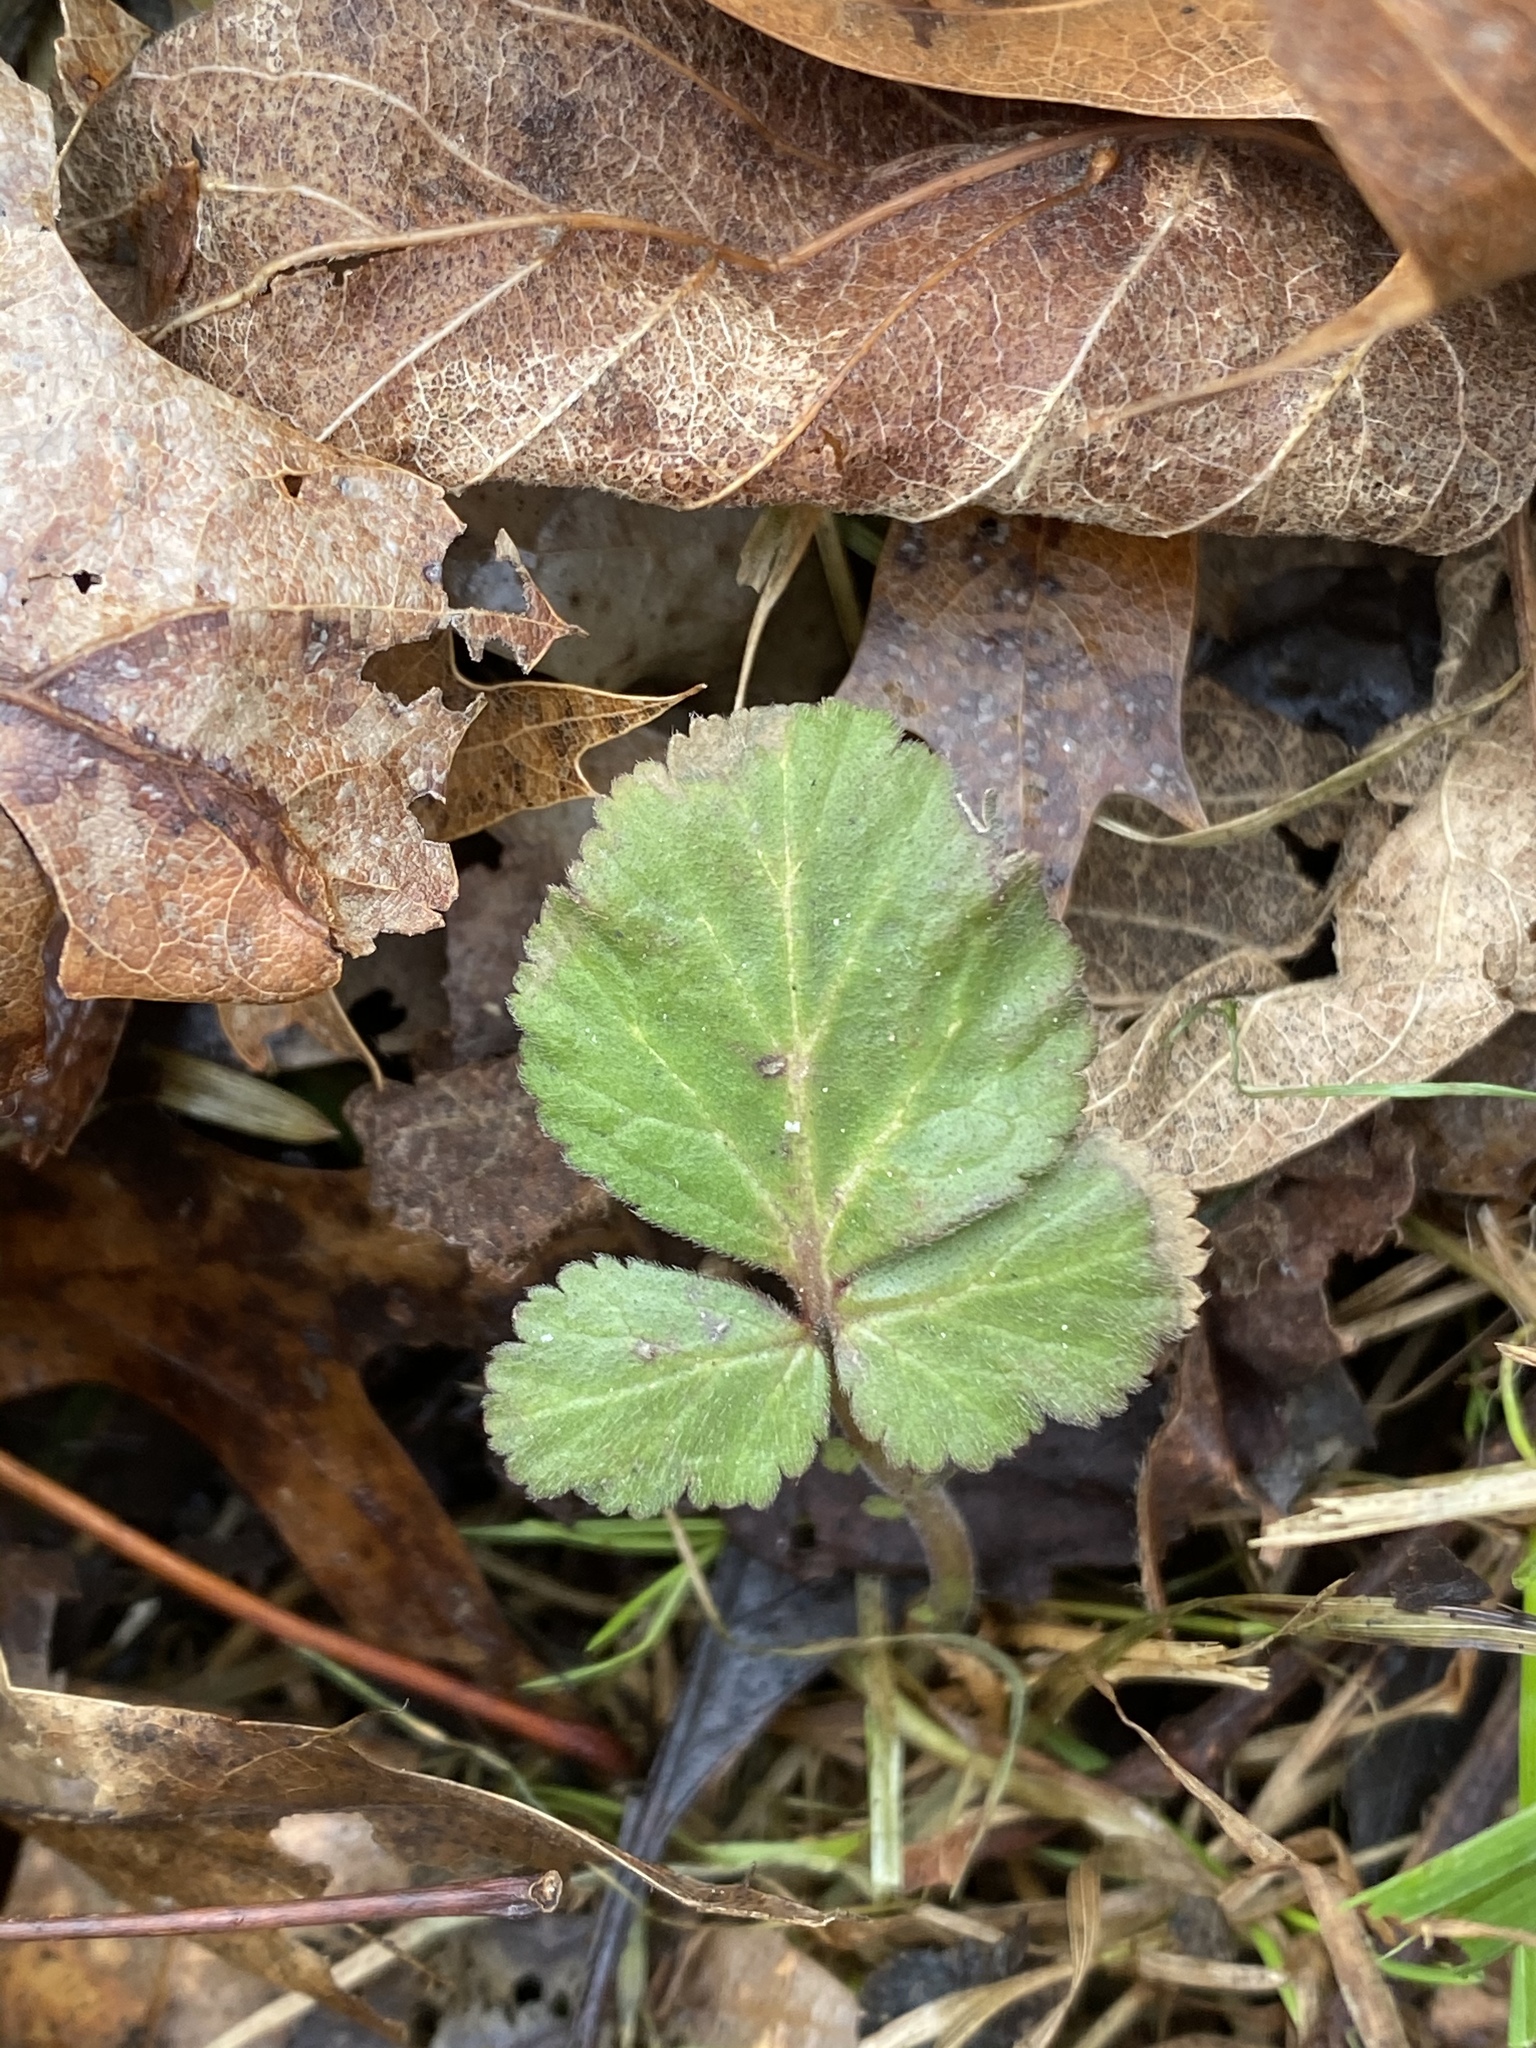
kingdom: Plantae
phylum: Tracheophyta
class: Magnoliopsida
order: Rosales
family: Rosaceae
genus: Geum
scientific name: Geum canadense
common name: White avens
